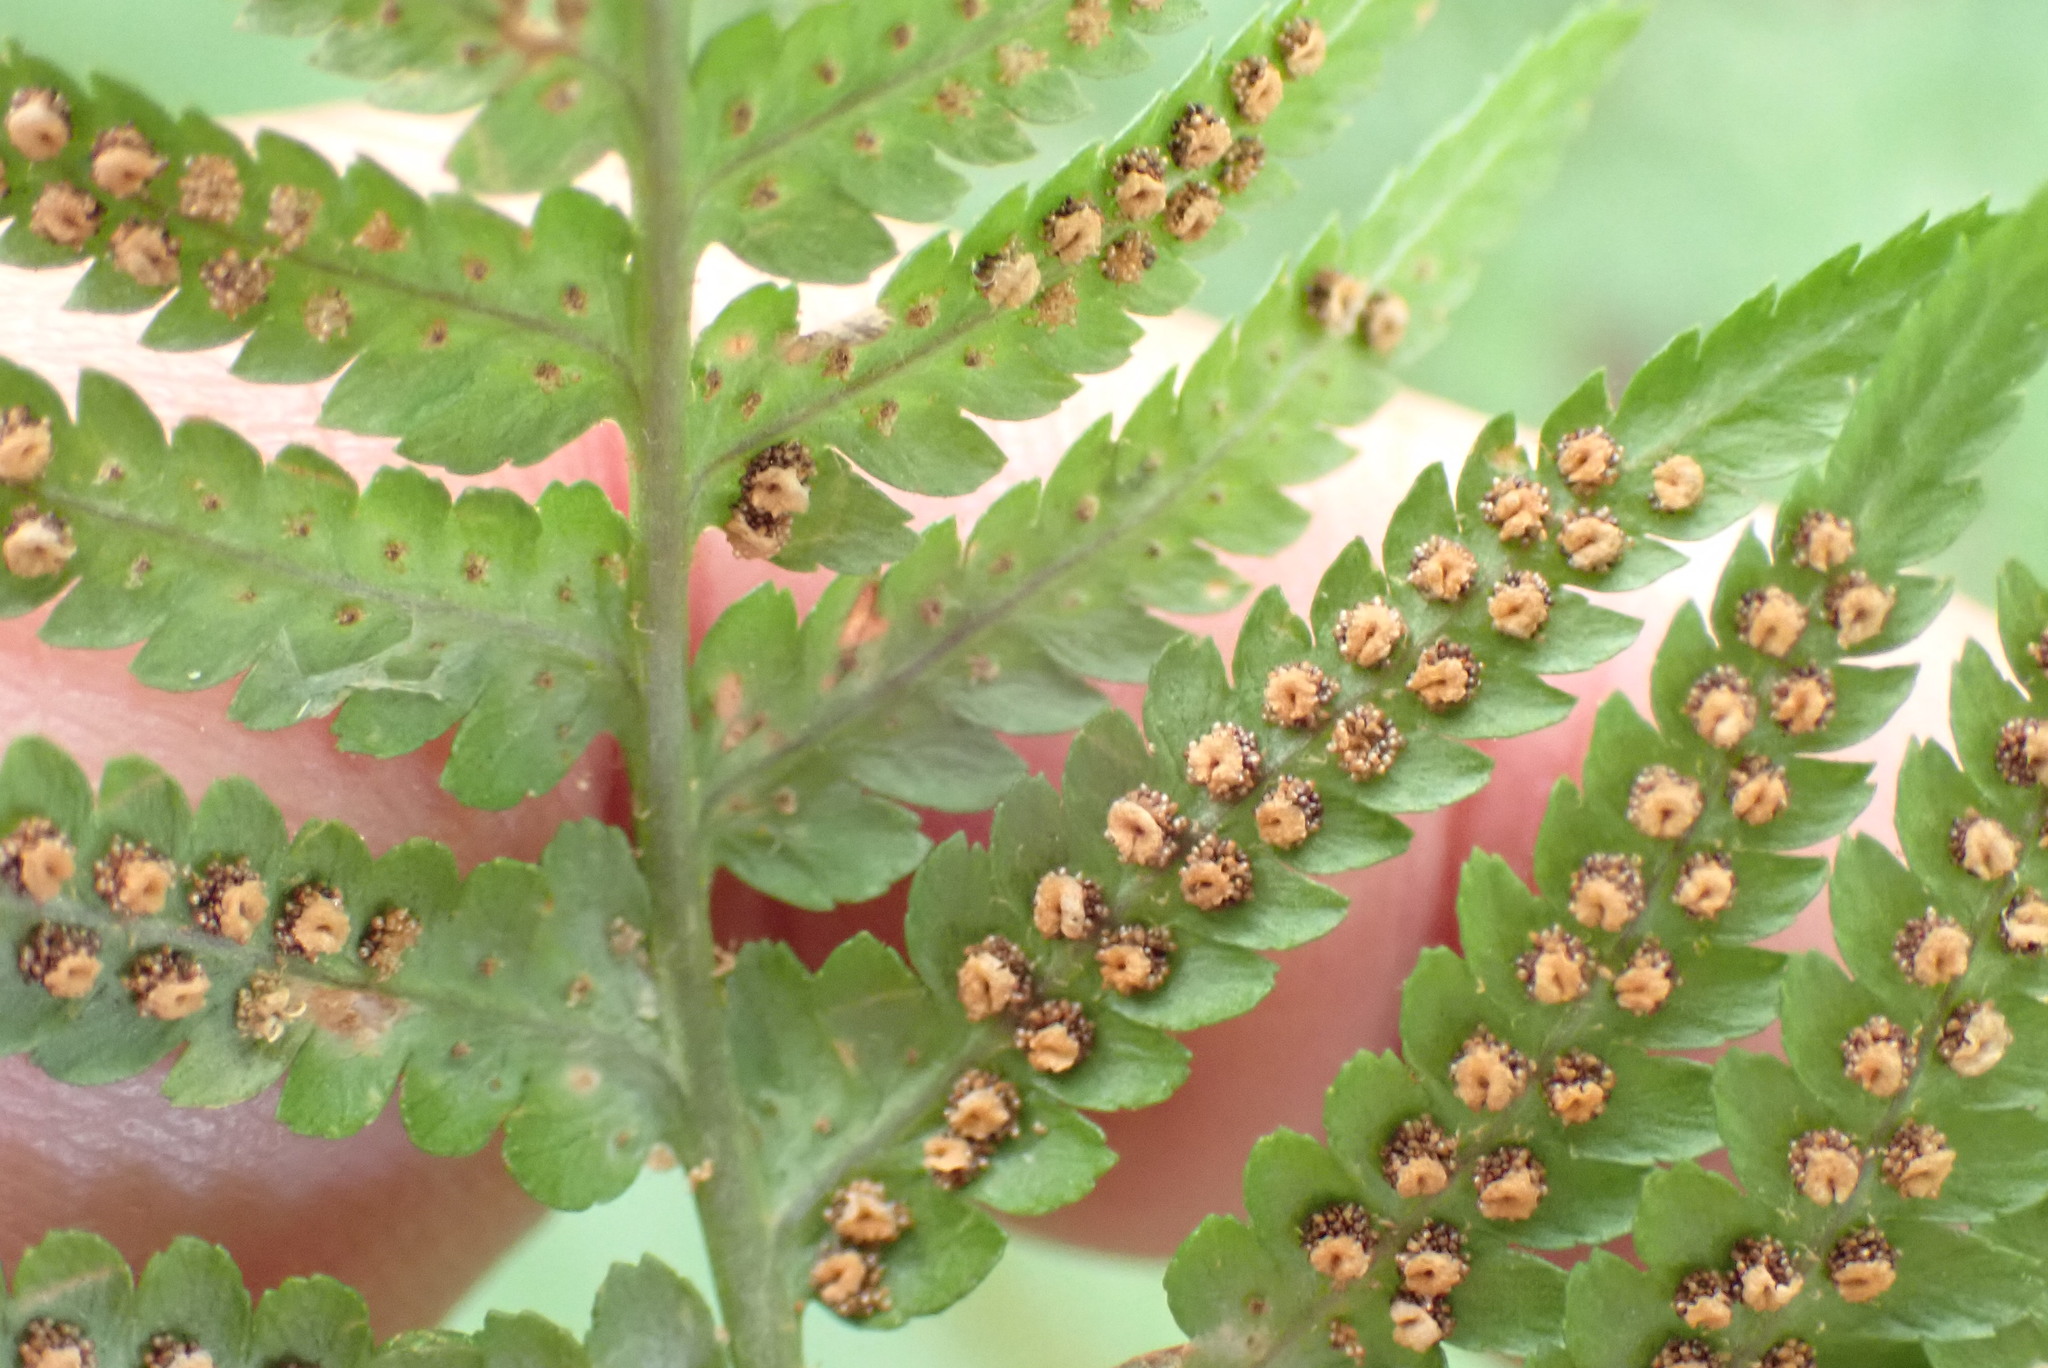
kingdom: Plantae
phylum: Tracheophyta
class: Polypodiopsida
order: Polypodiales
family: Dryopteridaceae
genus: Dryopteris
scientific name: Dryopteris filix-mas
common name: Male fern
